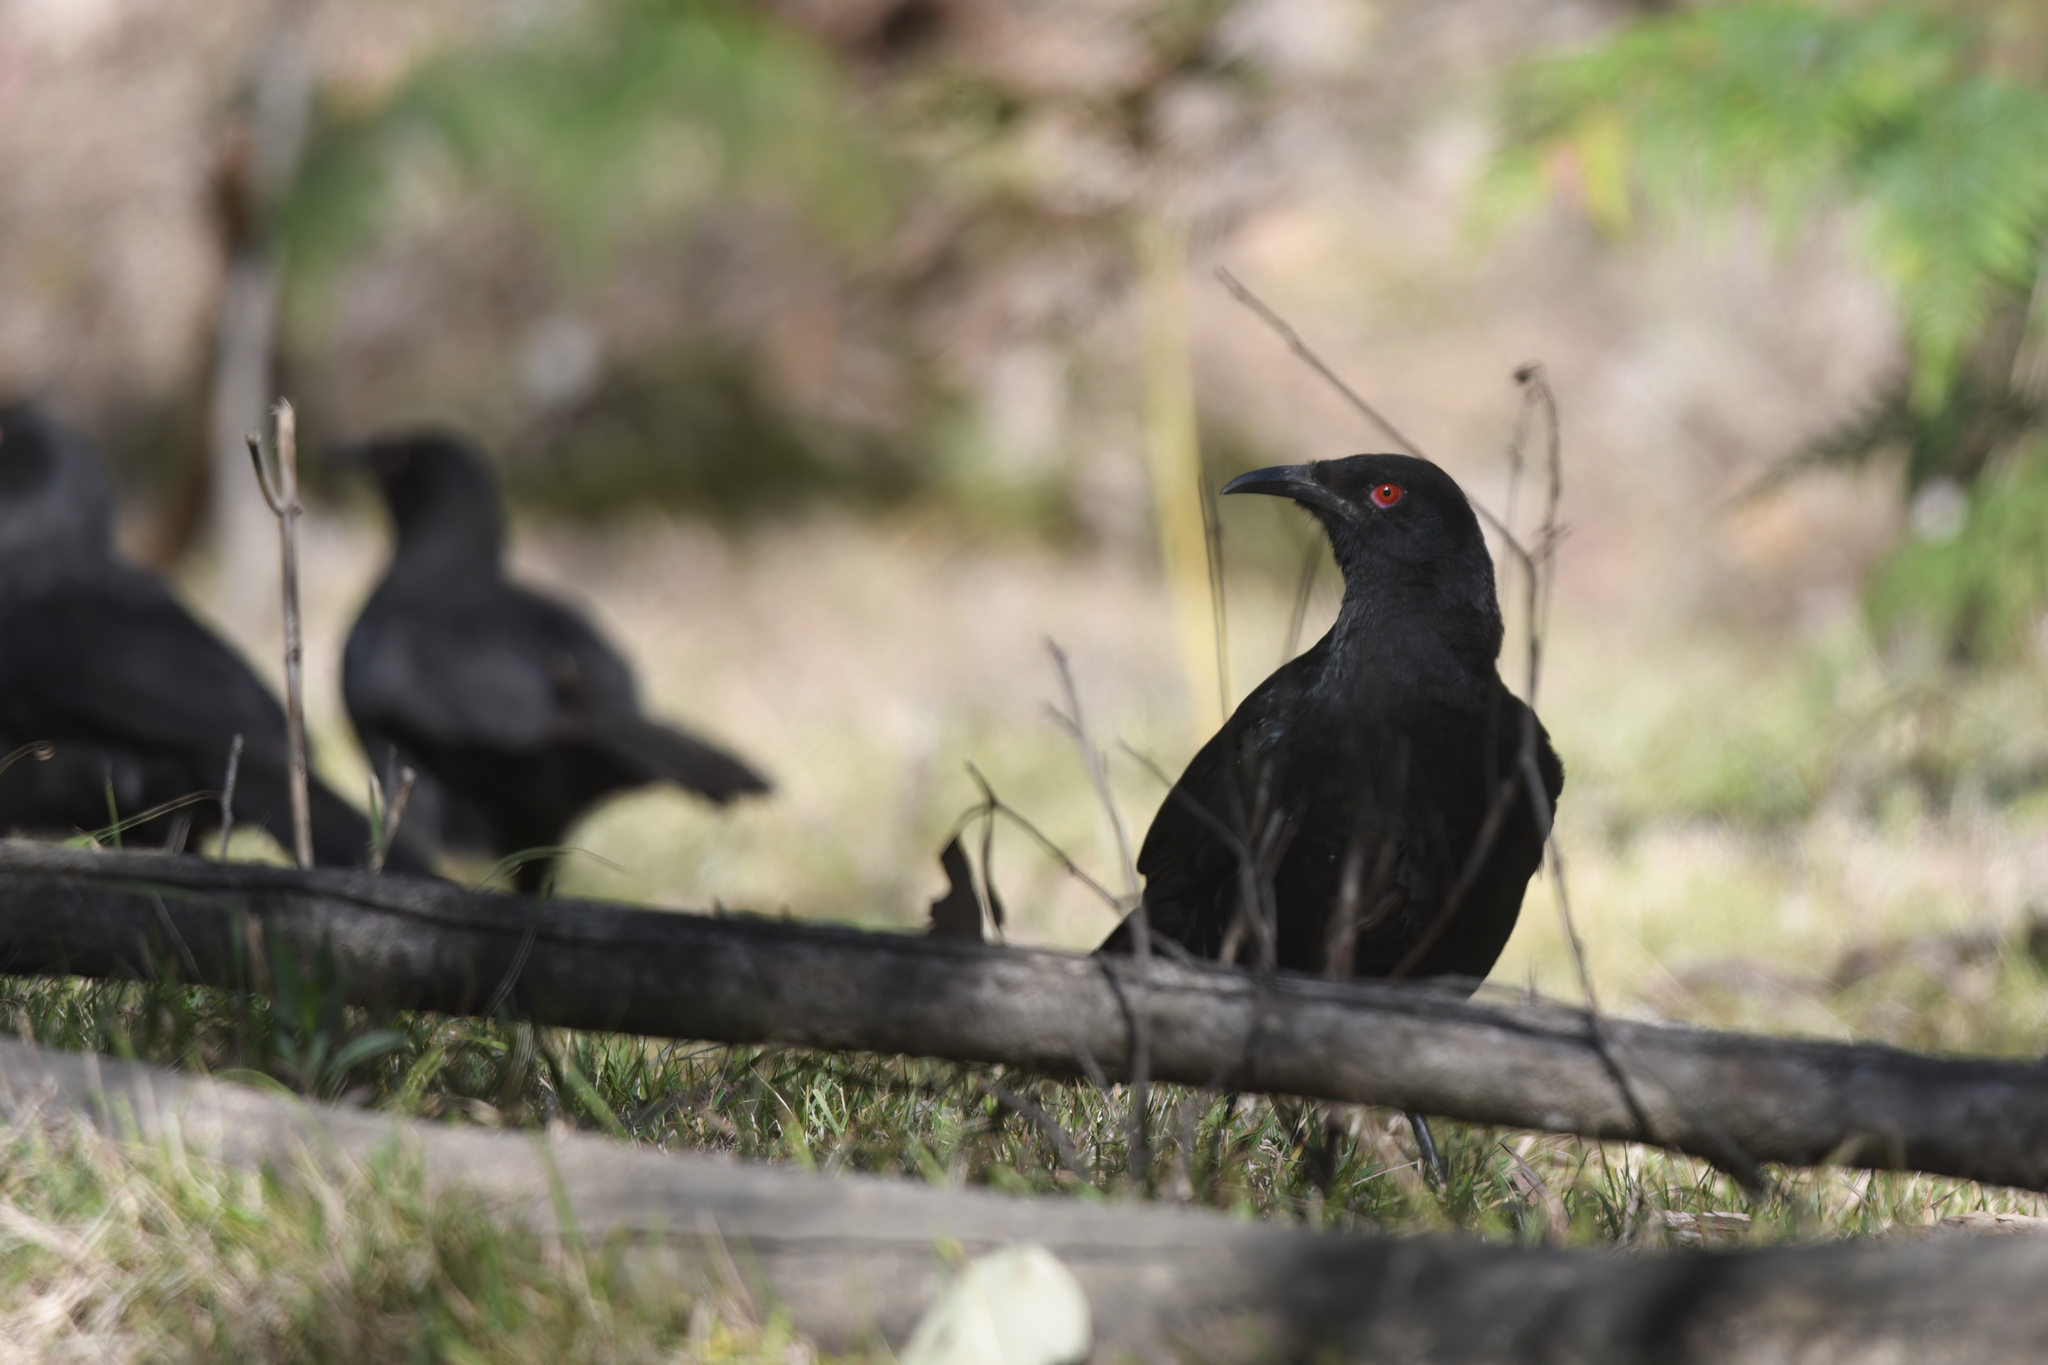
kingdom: Animalia
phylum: Chordata
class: Aves
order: Passeriformes
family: Corcoracidae
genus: Corcorax
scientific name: Corcorax melanoramphos
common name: White-winged chough
